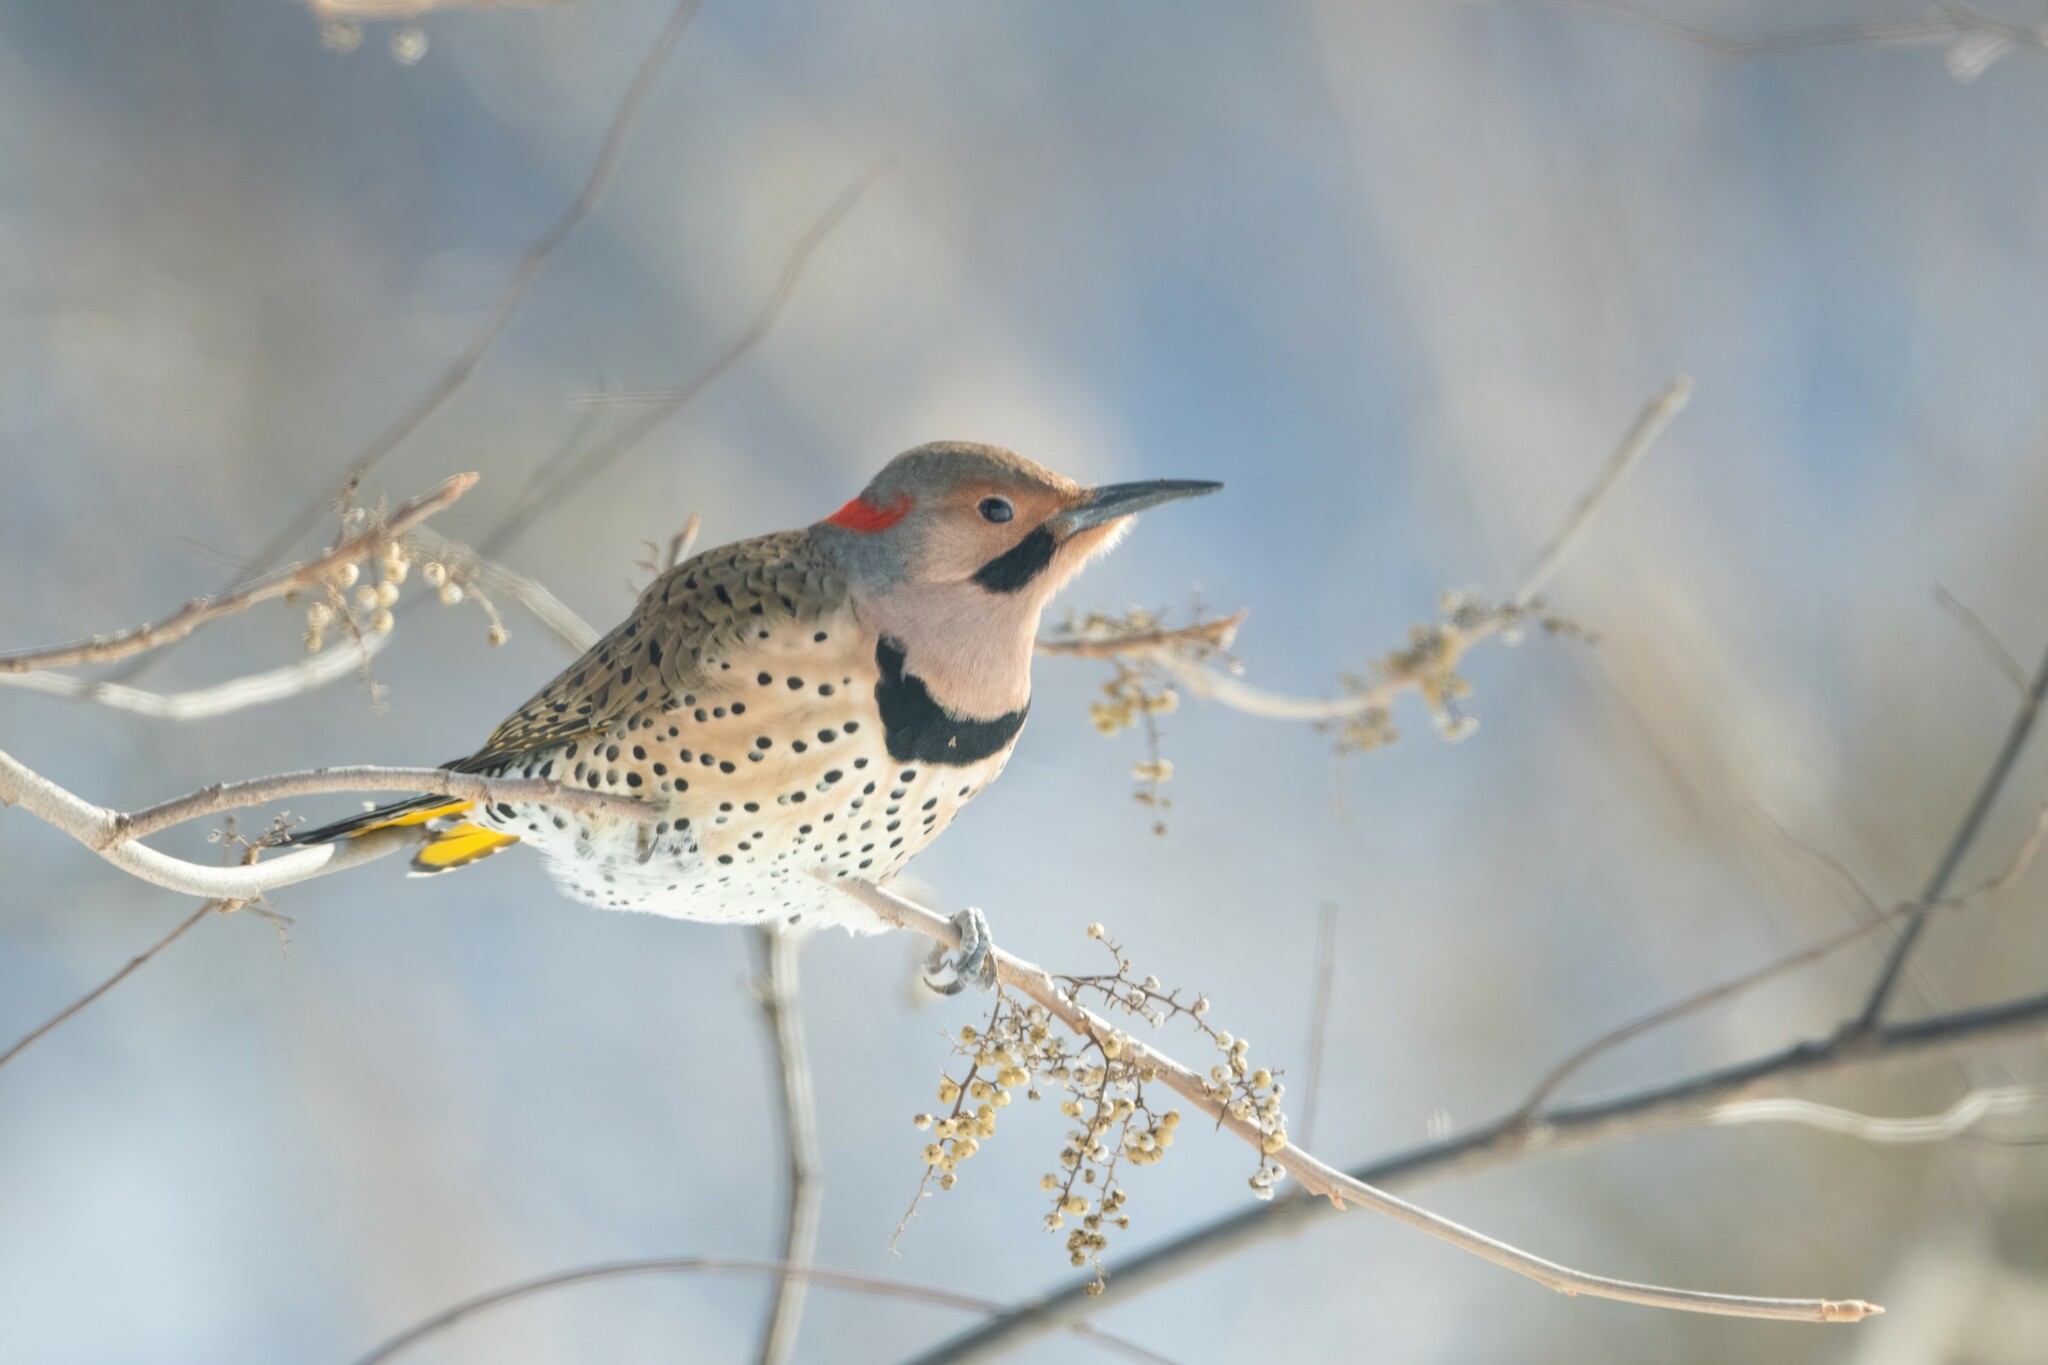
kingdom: Animalia
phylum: Chordata
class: Aves
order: Piciformes
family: Picidae
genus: Colaptes
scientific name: Colaptes auratus
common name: Northern flicker
